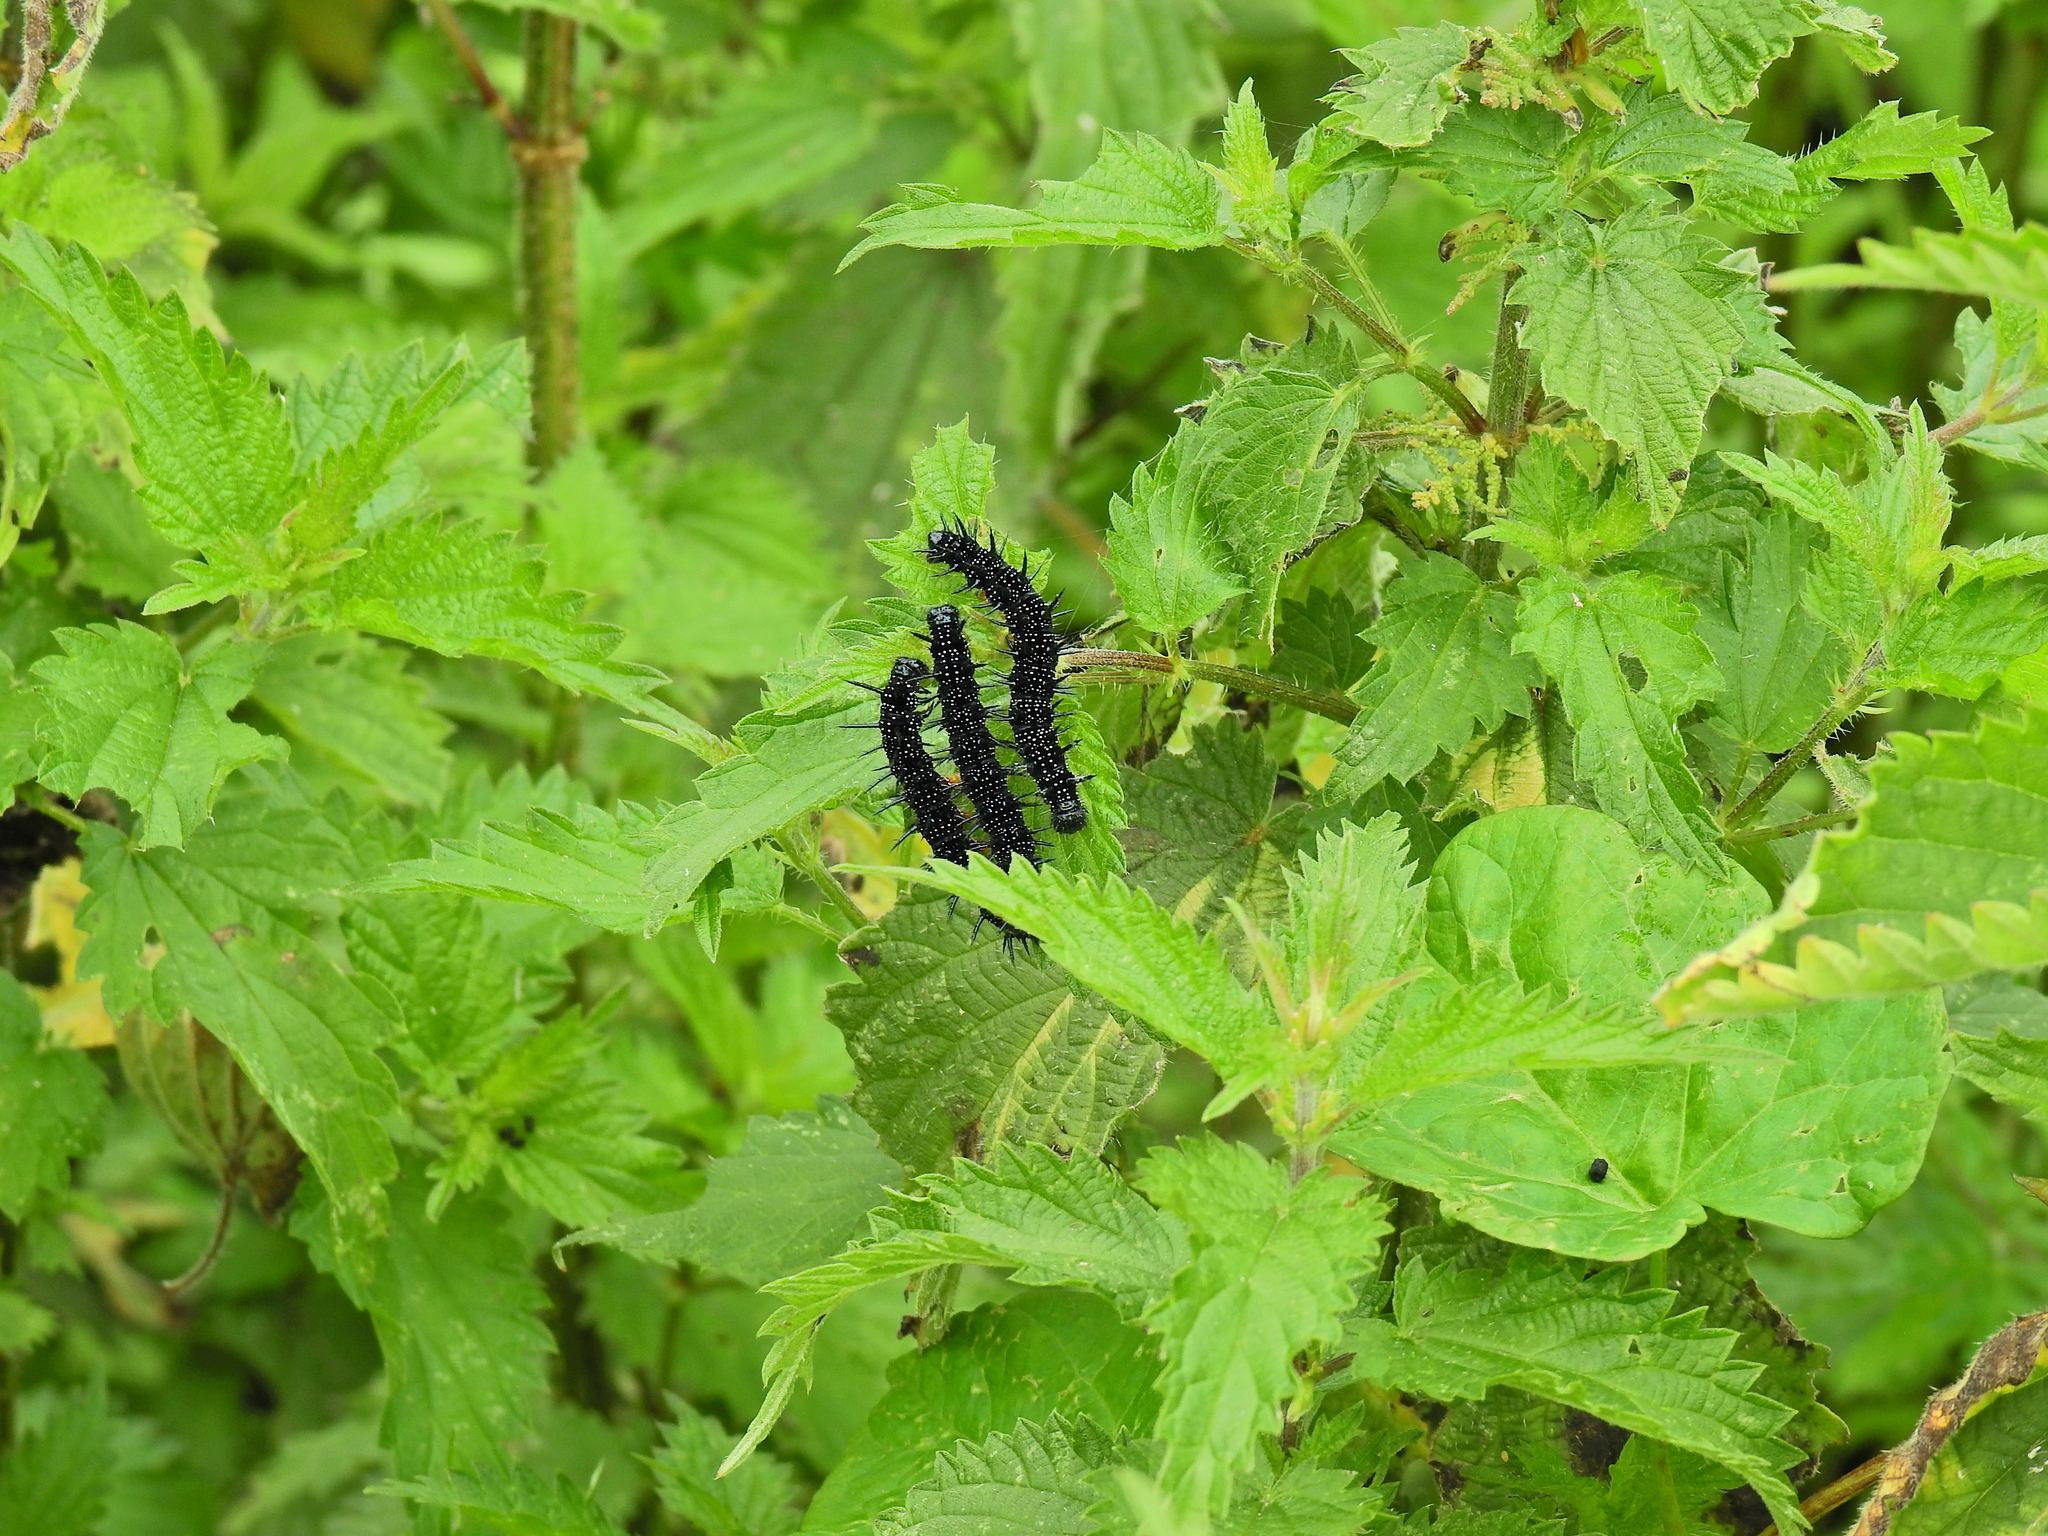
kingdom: Animalia
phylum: Arthropoda
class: Insecta
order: Lepidoptera
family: Nymphalidae
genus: Aglais
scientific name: Aglais io
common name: Peacock
